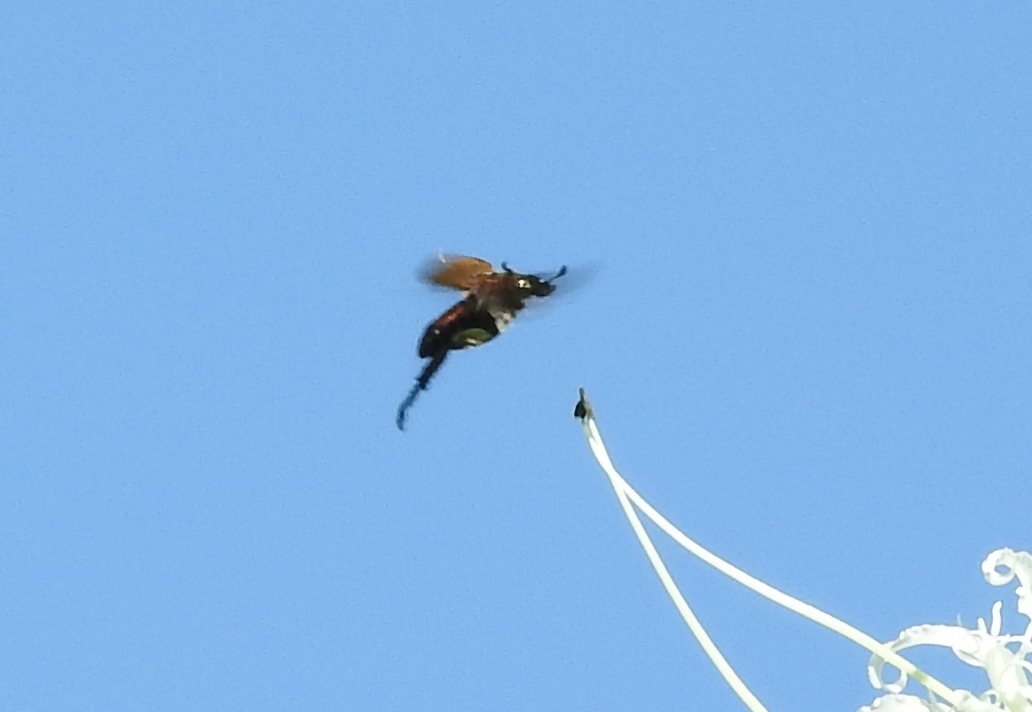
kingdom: Animalia
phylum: Arthropoda
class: Insecta
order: Coleoptera
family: Scarabaeidae
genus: Strigoderma
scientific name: Strigoderma
